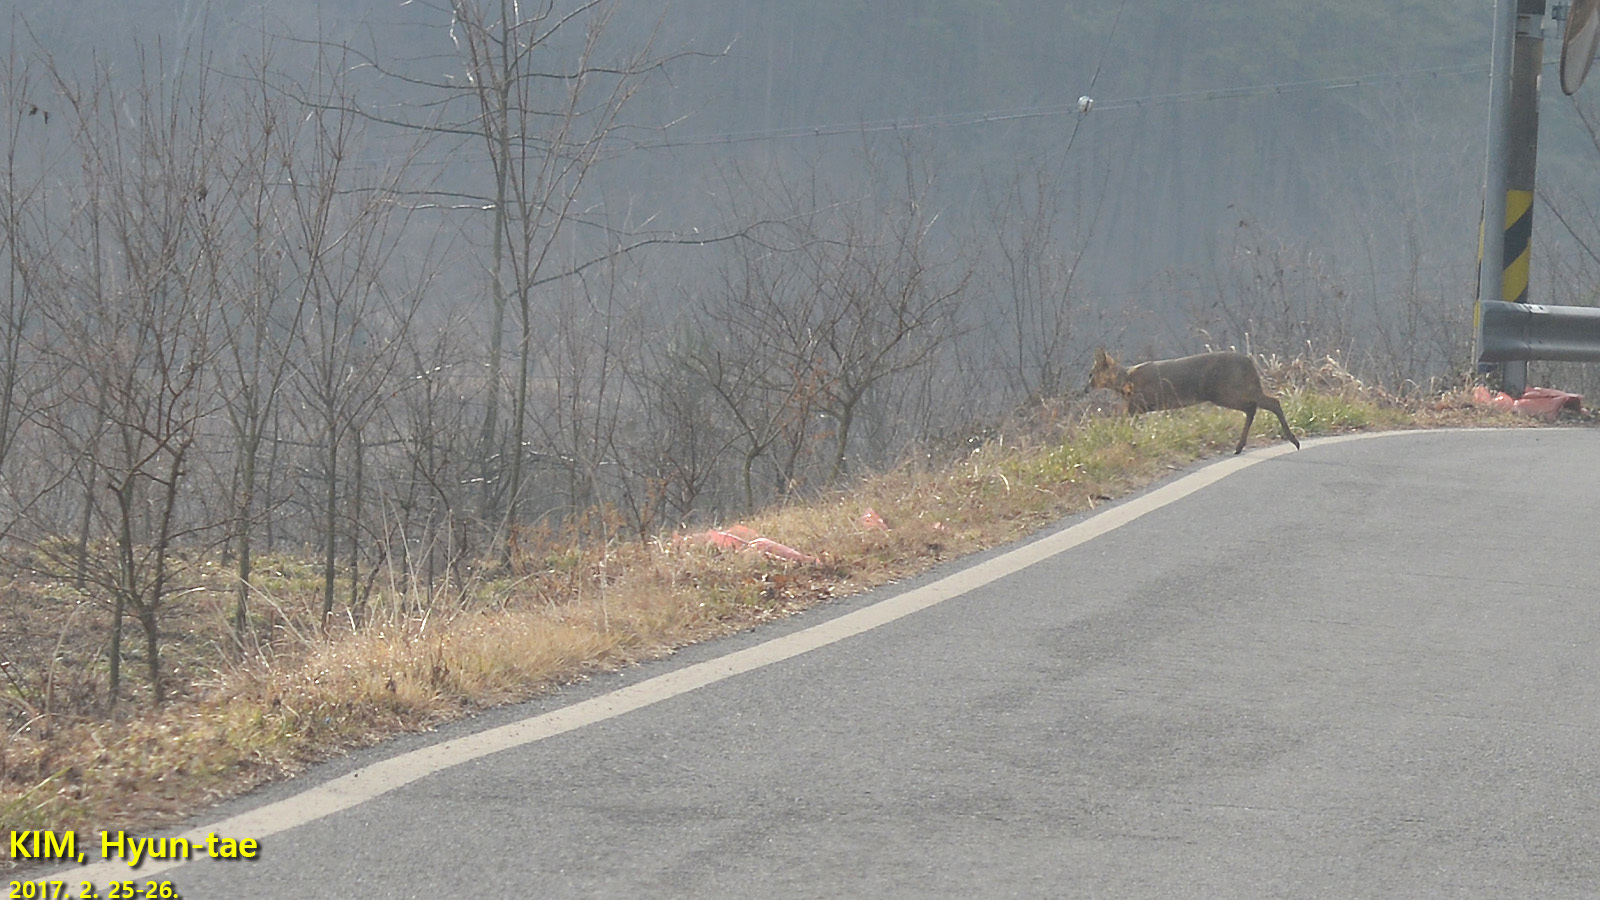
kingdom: Animalia
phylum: Chordata
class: Mammalia
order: Artiodactyla
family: Cervidae
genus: Hydropotes
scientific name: Hydropotes inermis
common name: Chinese water deer
